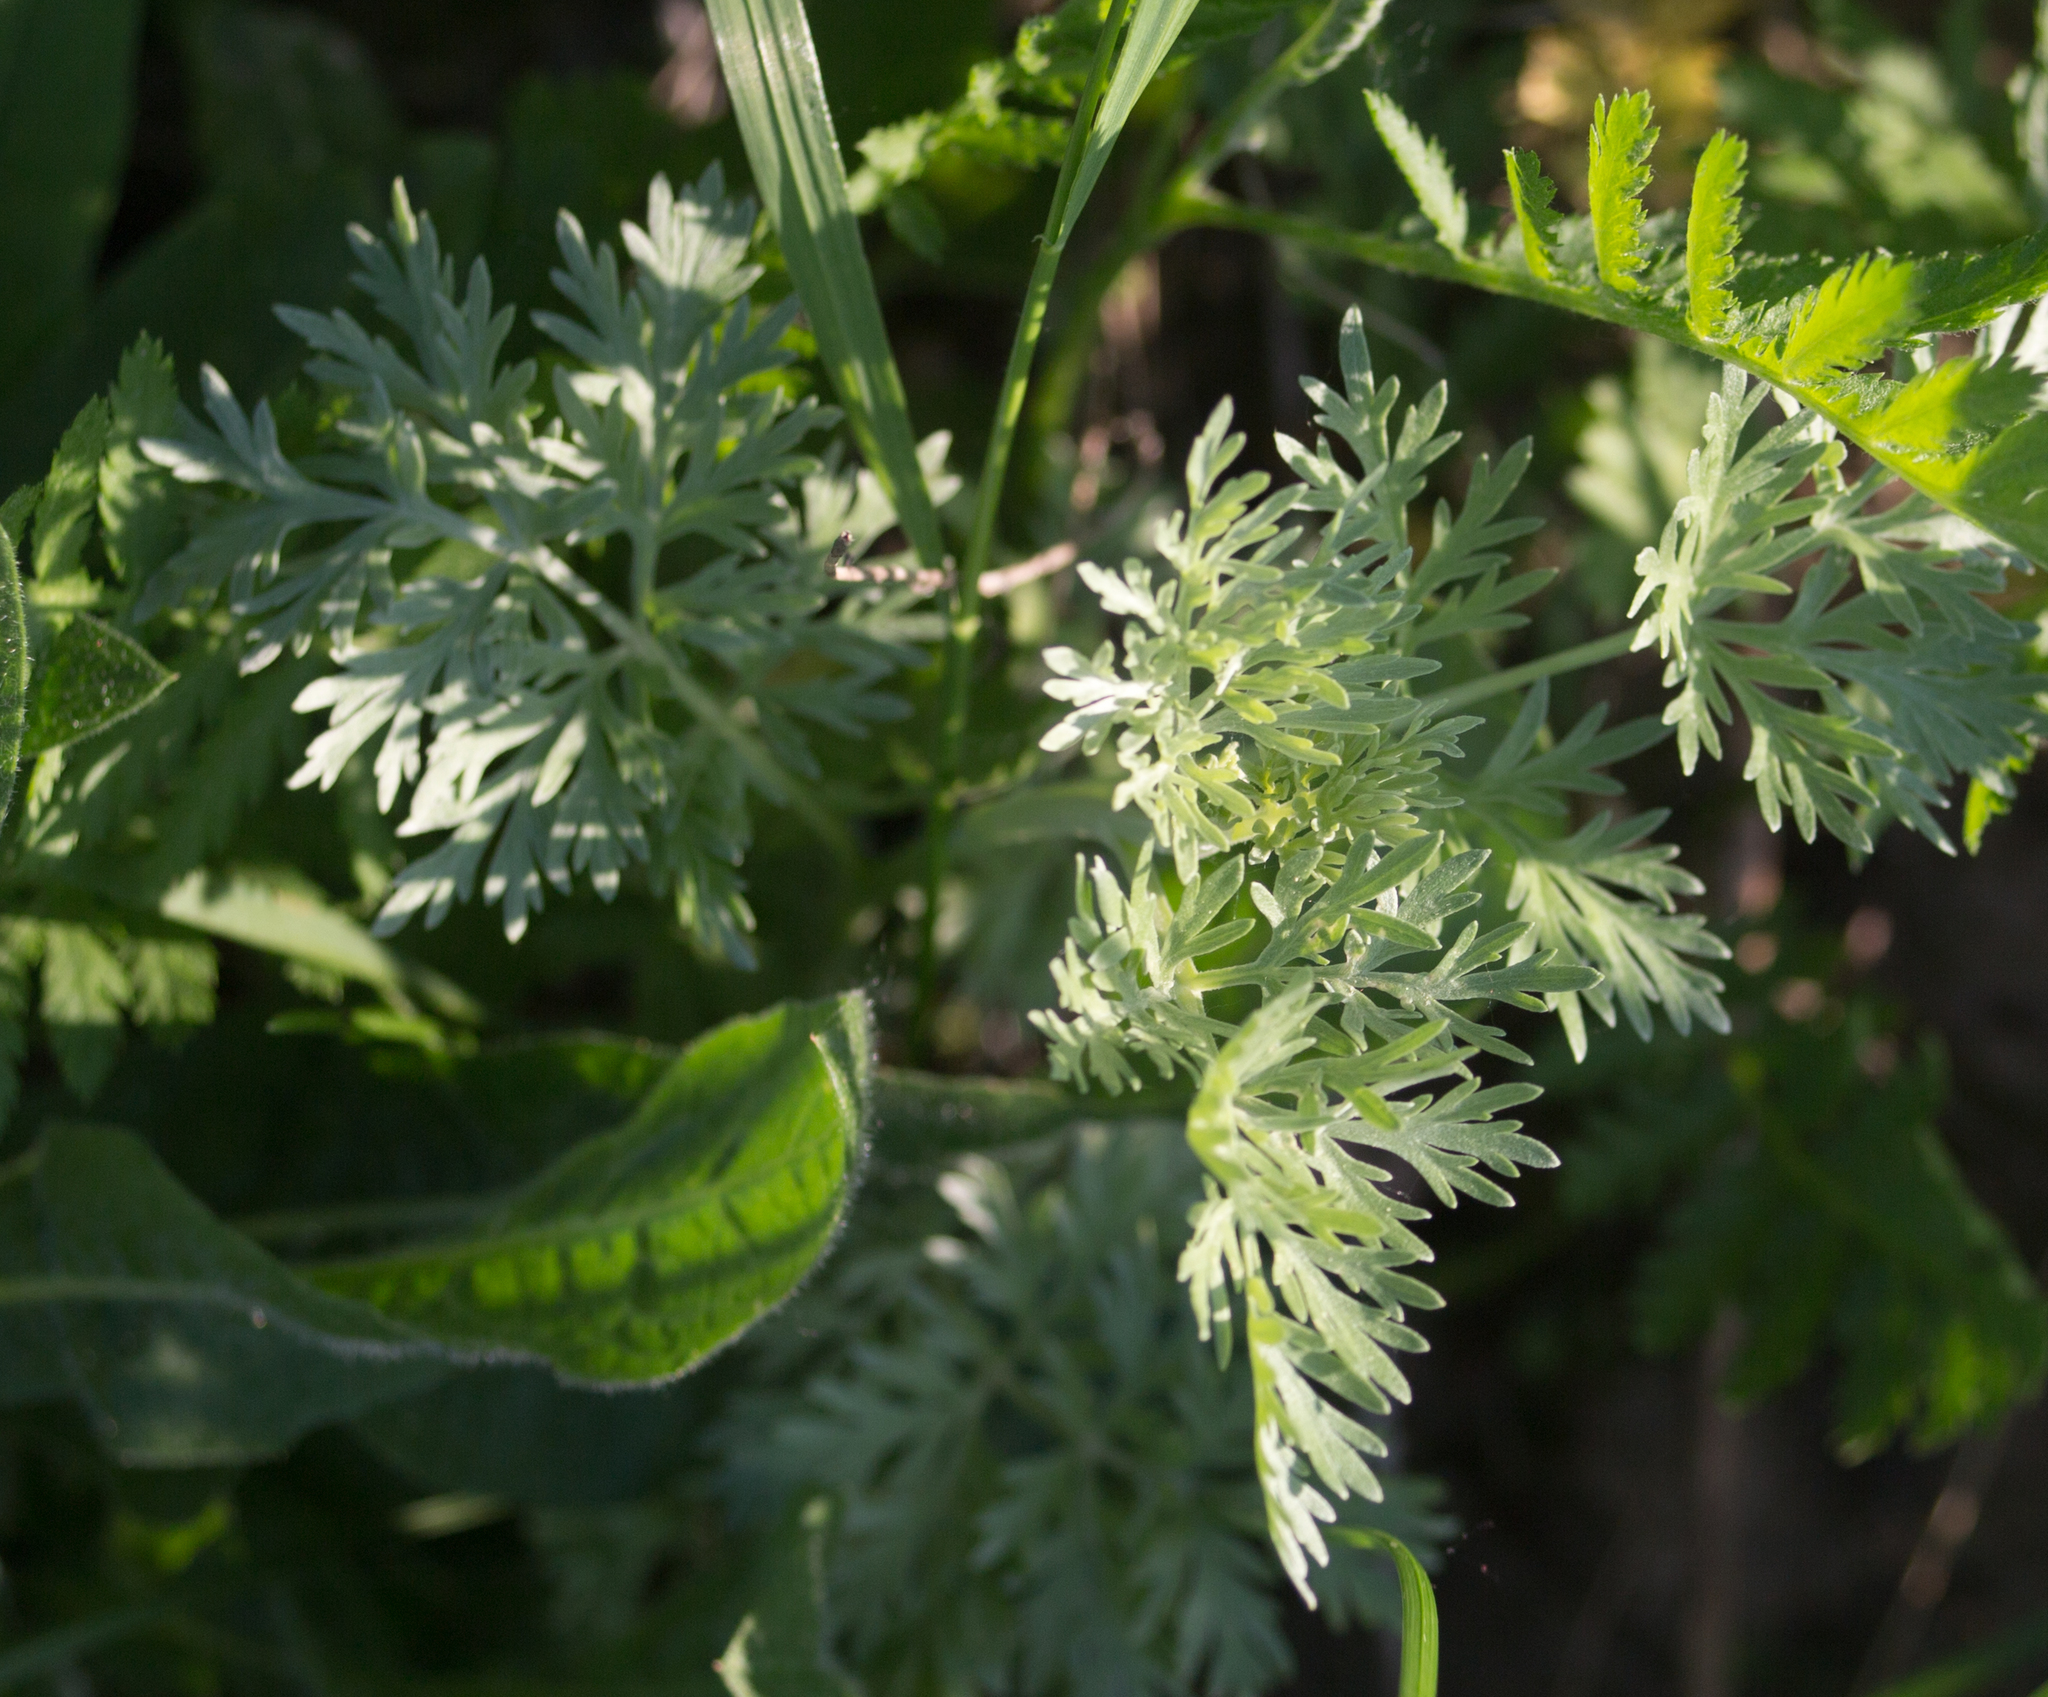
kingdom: Plantae
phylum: Tracheophyta
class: Magnoliopsida
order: Asterales
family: Asteraceae
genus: Artemisia
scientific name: Artemisia absinthium
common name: Wormwood
